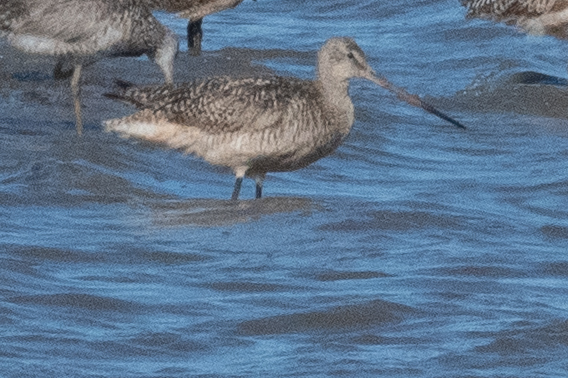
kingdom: Animalia
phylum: Chordata
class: Aves
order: Charadriiformes
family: Scolopacidae
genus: Limosa
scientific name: Limosa fedoa
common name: Marbled godwit
